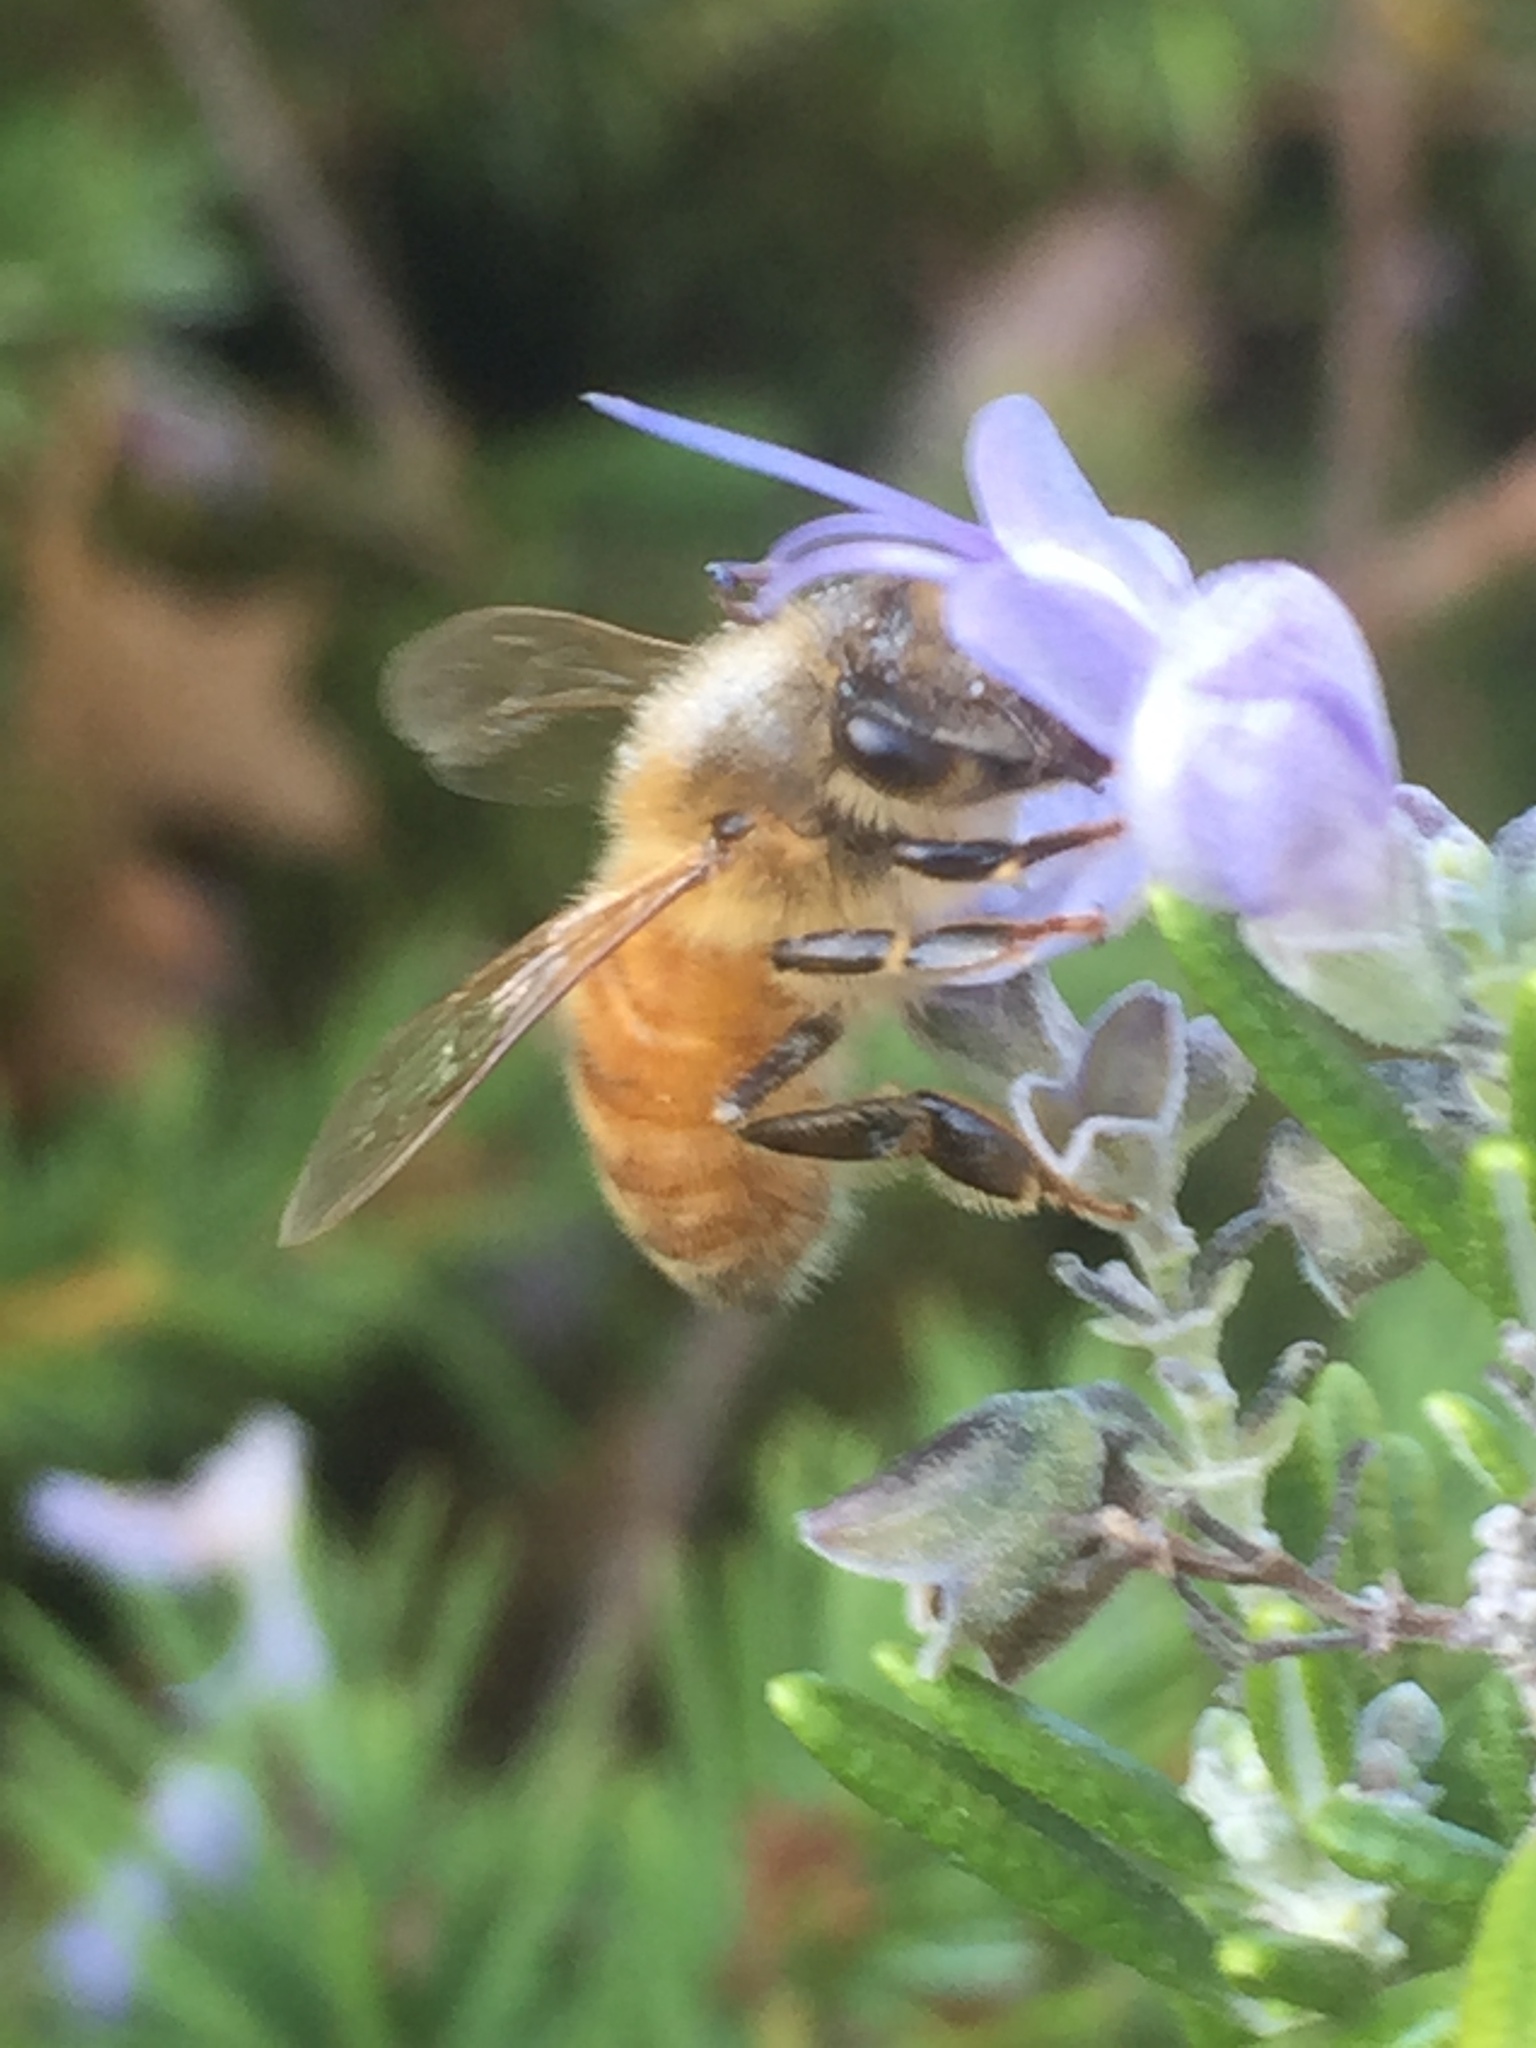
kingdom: Animalia
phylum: Arthropoda
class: Insecta
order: Hymenoptera
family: Apidae
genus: Apis
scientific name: Apis mellifera
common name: Honey bee
